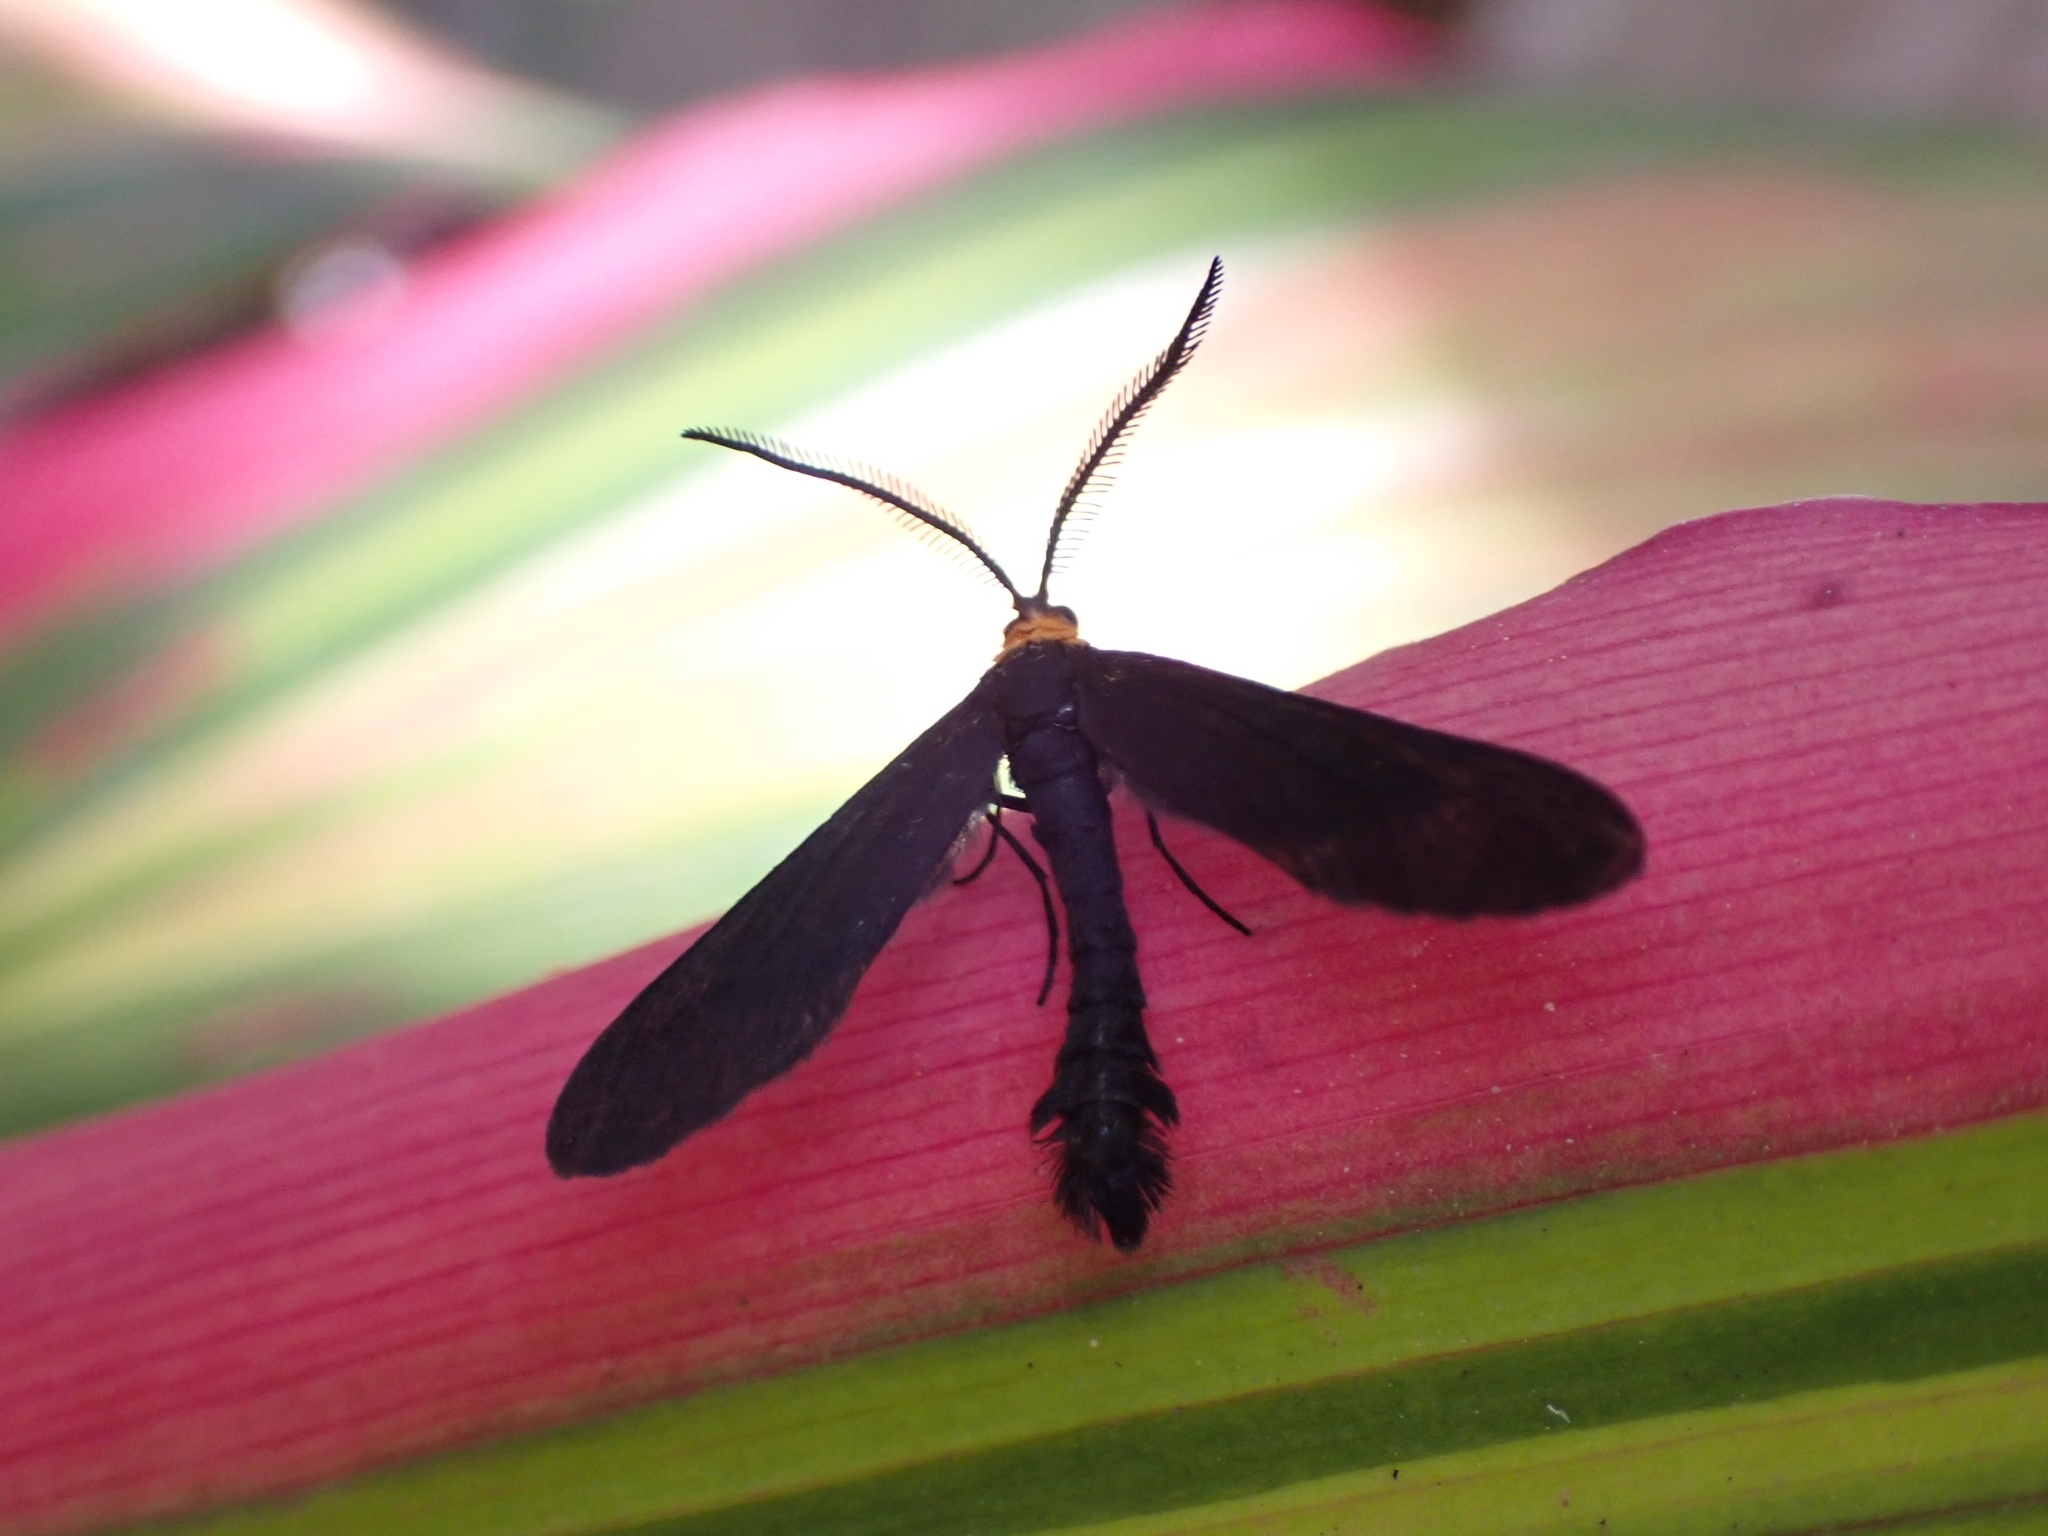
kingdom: Animalia
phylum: Arthropoda
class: Insecta
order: Lepidoptera
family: Zygaenidae
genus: Harrisina
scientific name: Harrisina americana
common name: Grapeleaf skeletonizer moth
